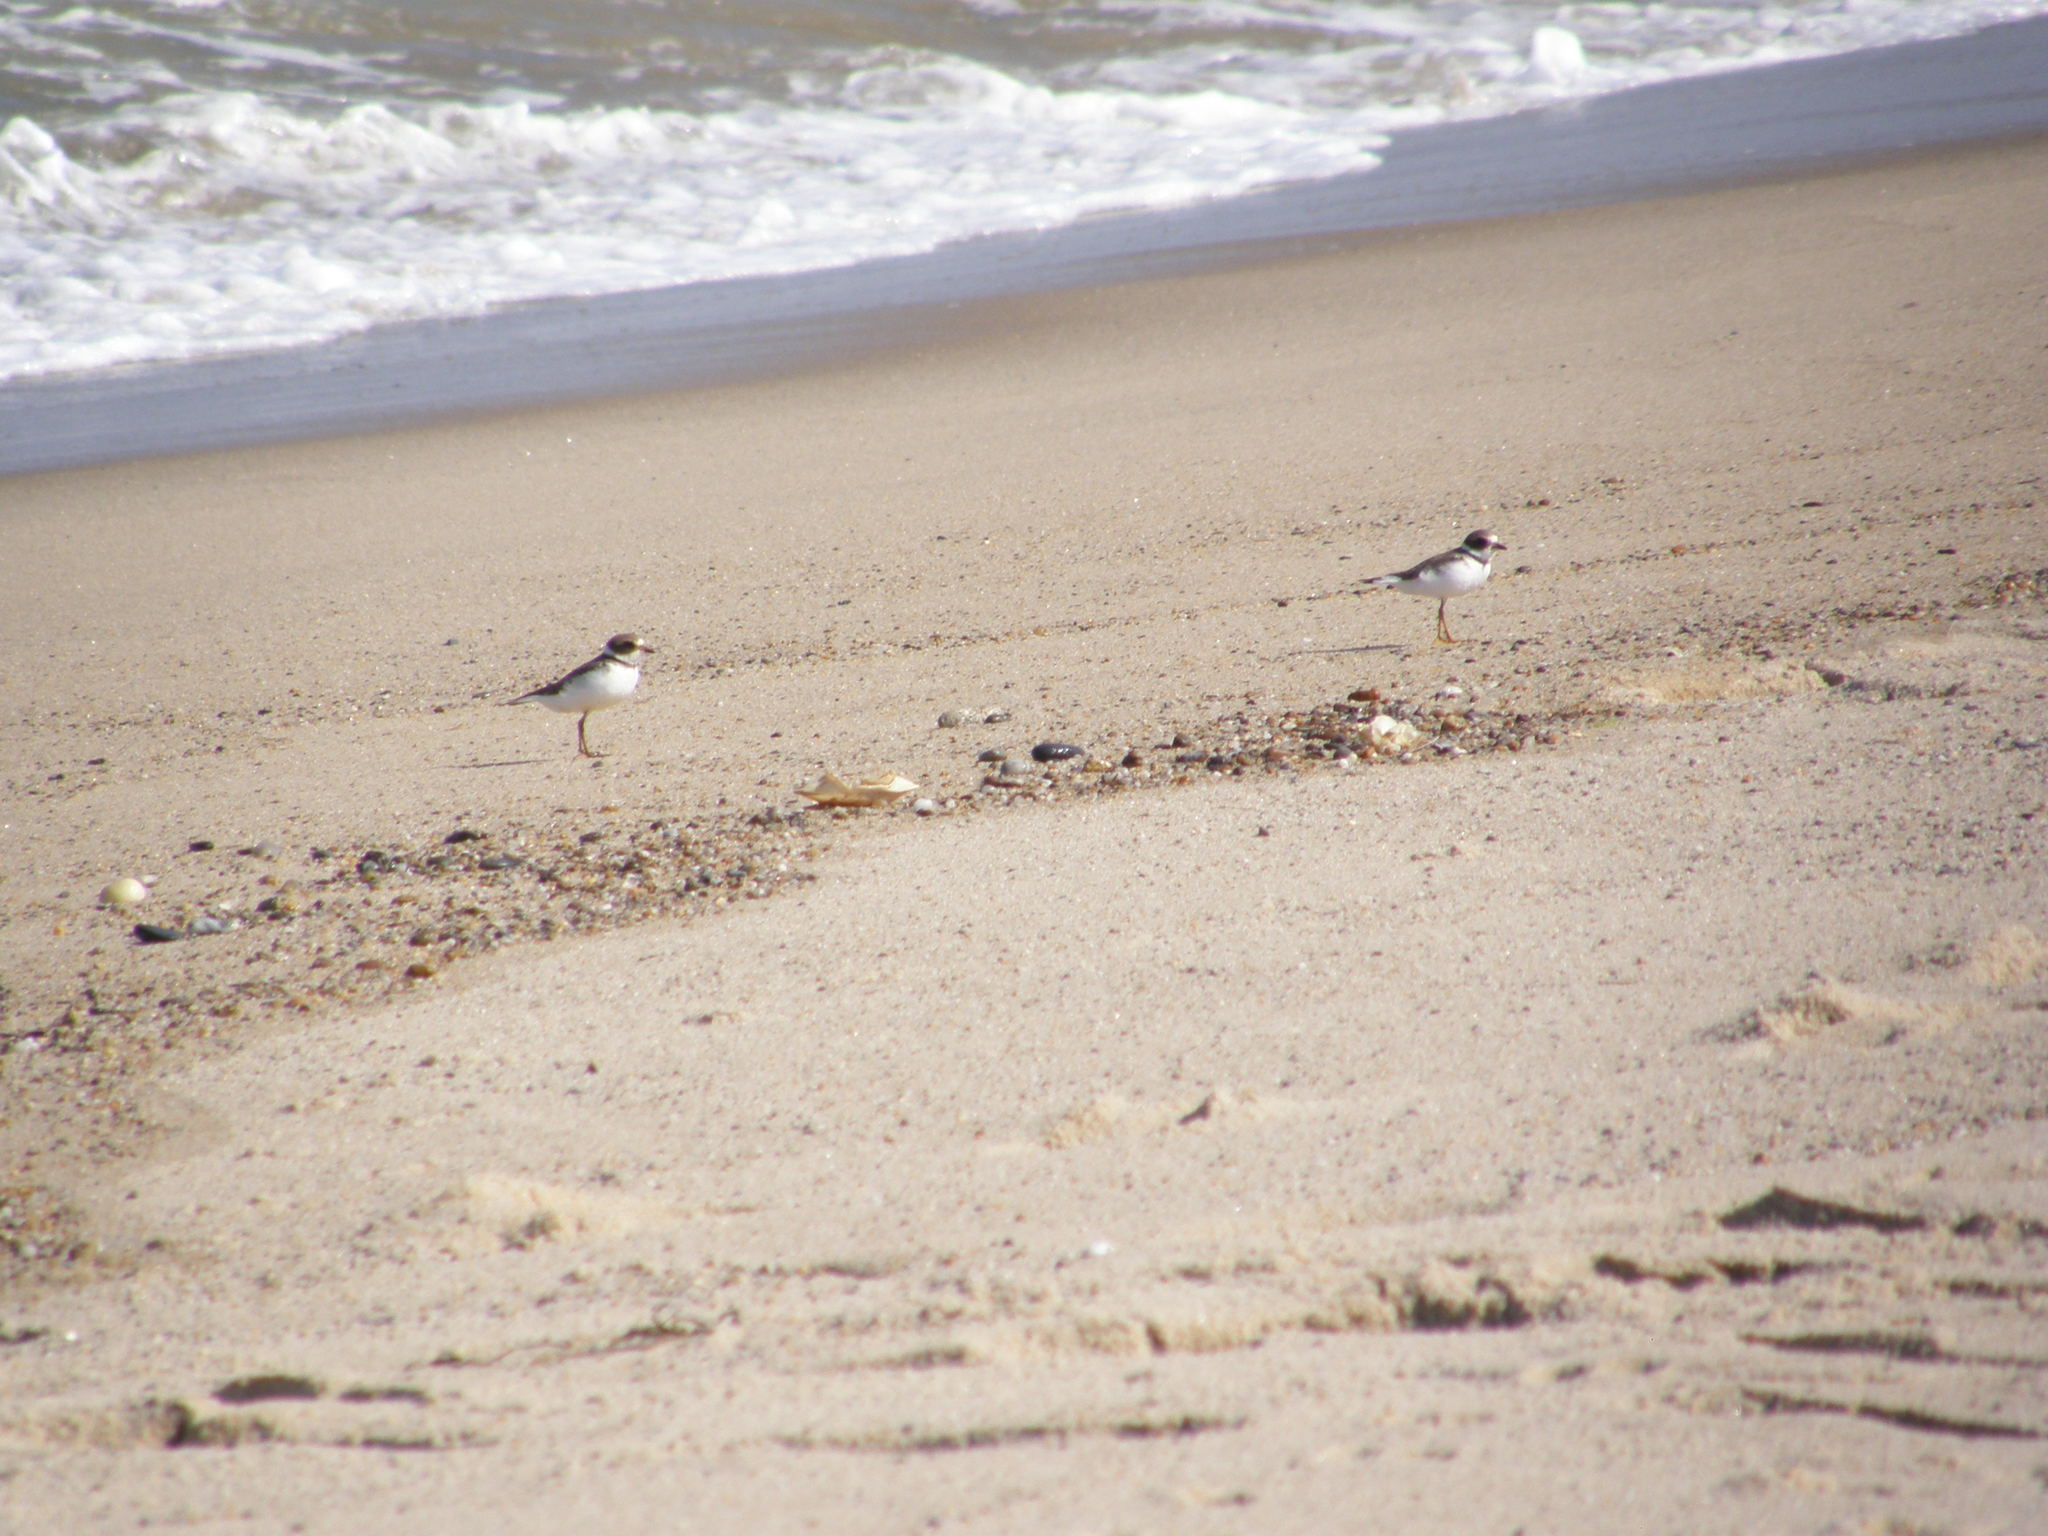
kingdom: Animalia
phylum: Chordata
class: Aves
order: Charadriiformes
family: Charadriidae
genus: Charadrius
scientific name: Charadrius semipalmatus
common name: Semipalmated plover
